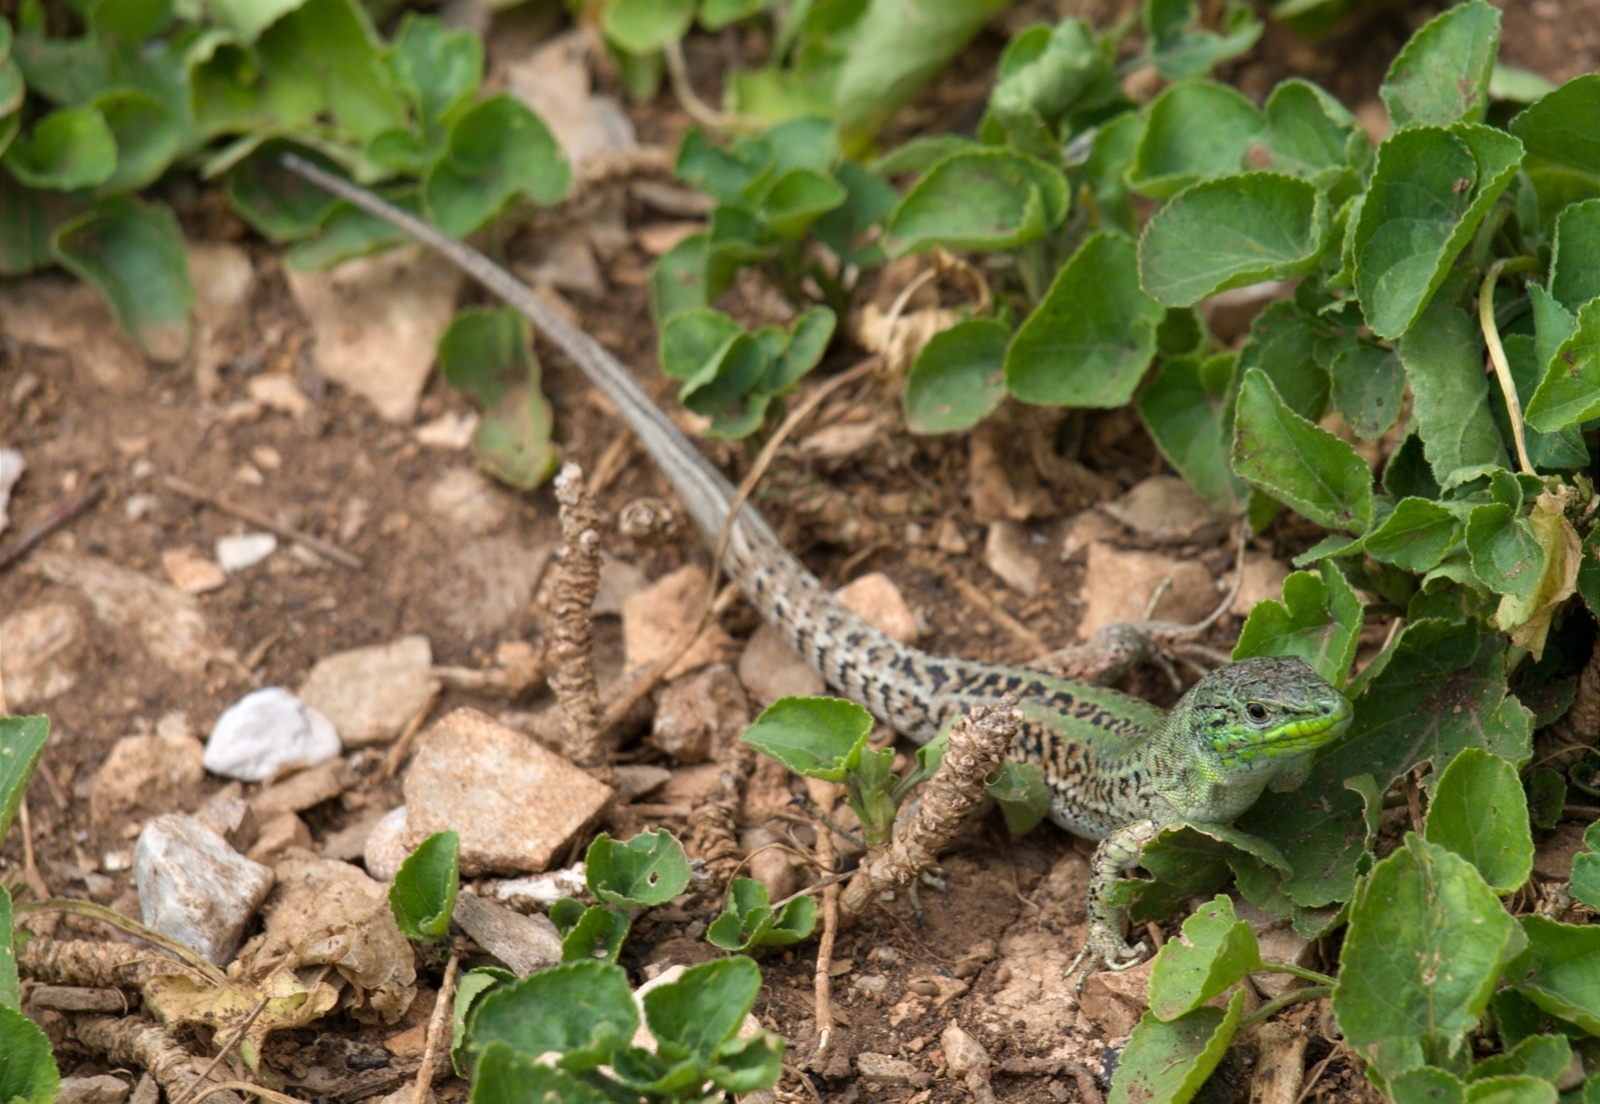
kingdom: Animalia
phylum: Chordata
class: Squamata
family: Lacertidae
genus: Podarcis
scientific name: Podarcis siculus
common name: Italian wall lizard
